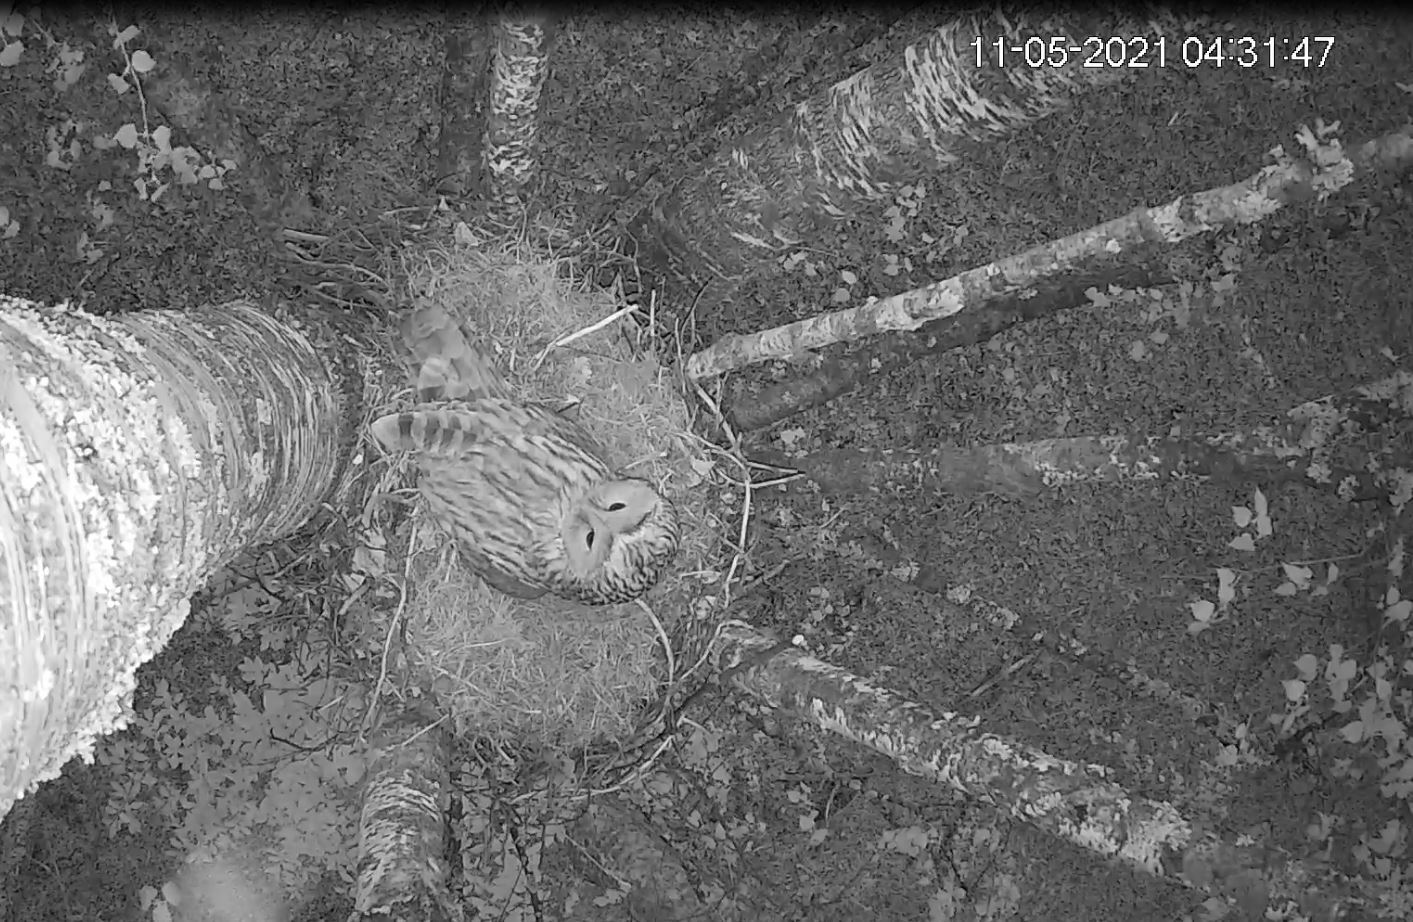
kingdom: Animalia
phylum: Chordata
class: Aves
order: Strigiformes
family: Strigidae
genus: Strix
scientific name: Strix uralensis
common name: Ural owl
